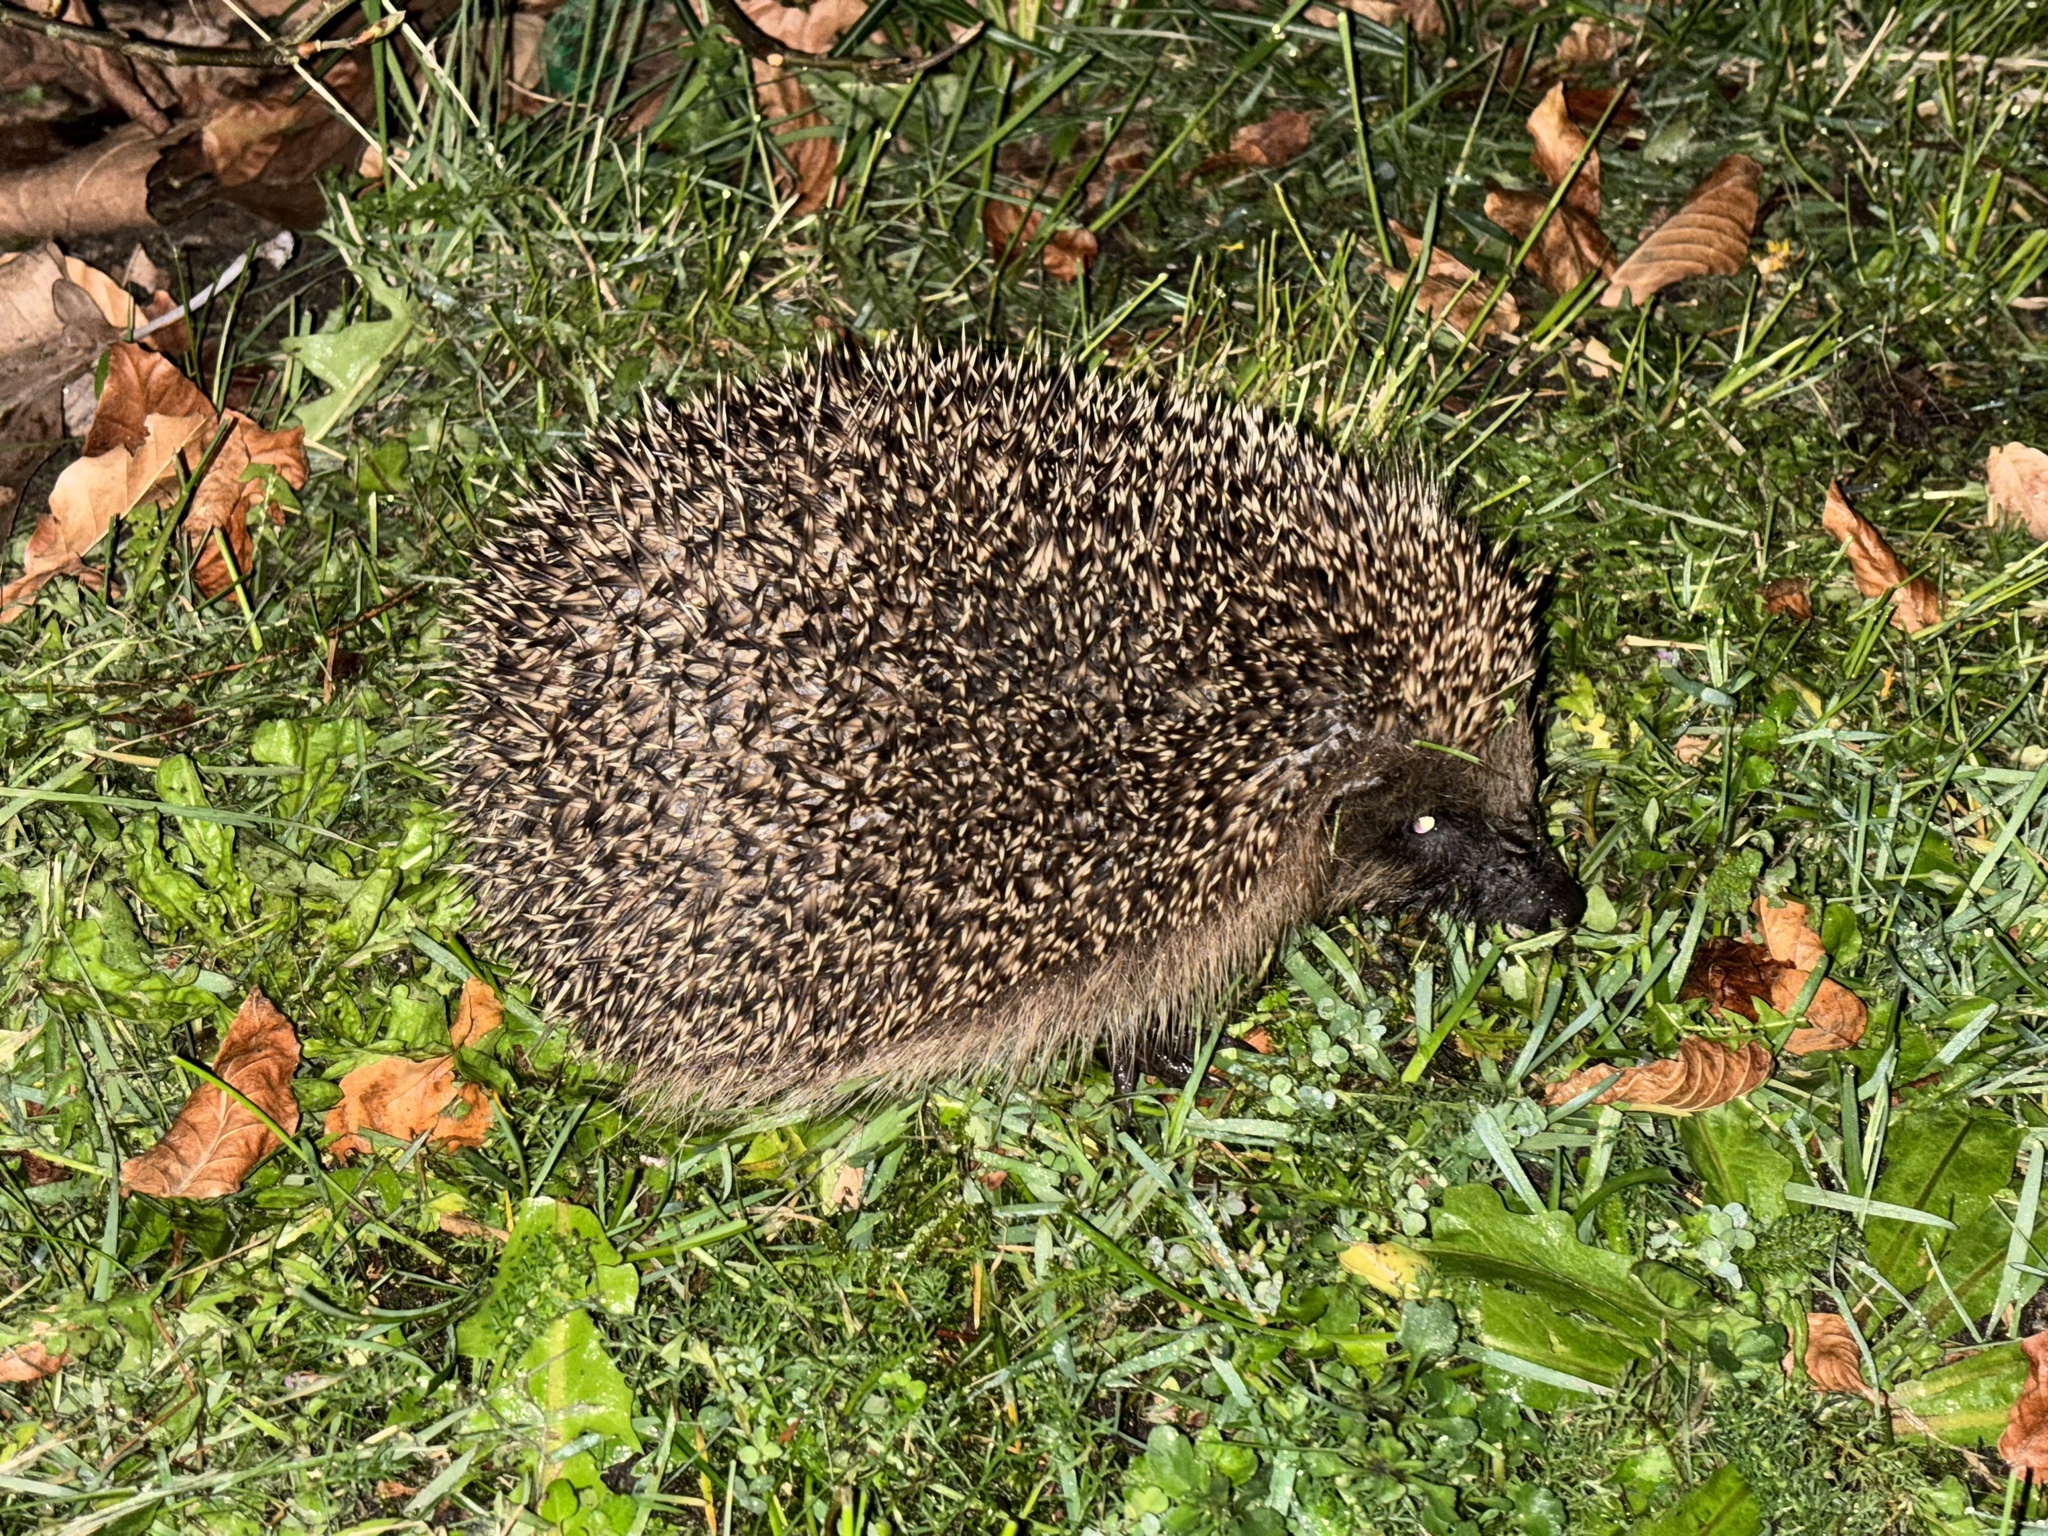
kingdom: Animalia
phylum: Chordata
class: Mammalia
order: Erinaceomorpha
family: Erinaceidae
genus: Erinaceus
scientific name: Erinaceus europaeus
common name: West european hedgehog
